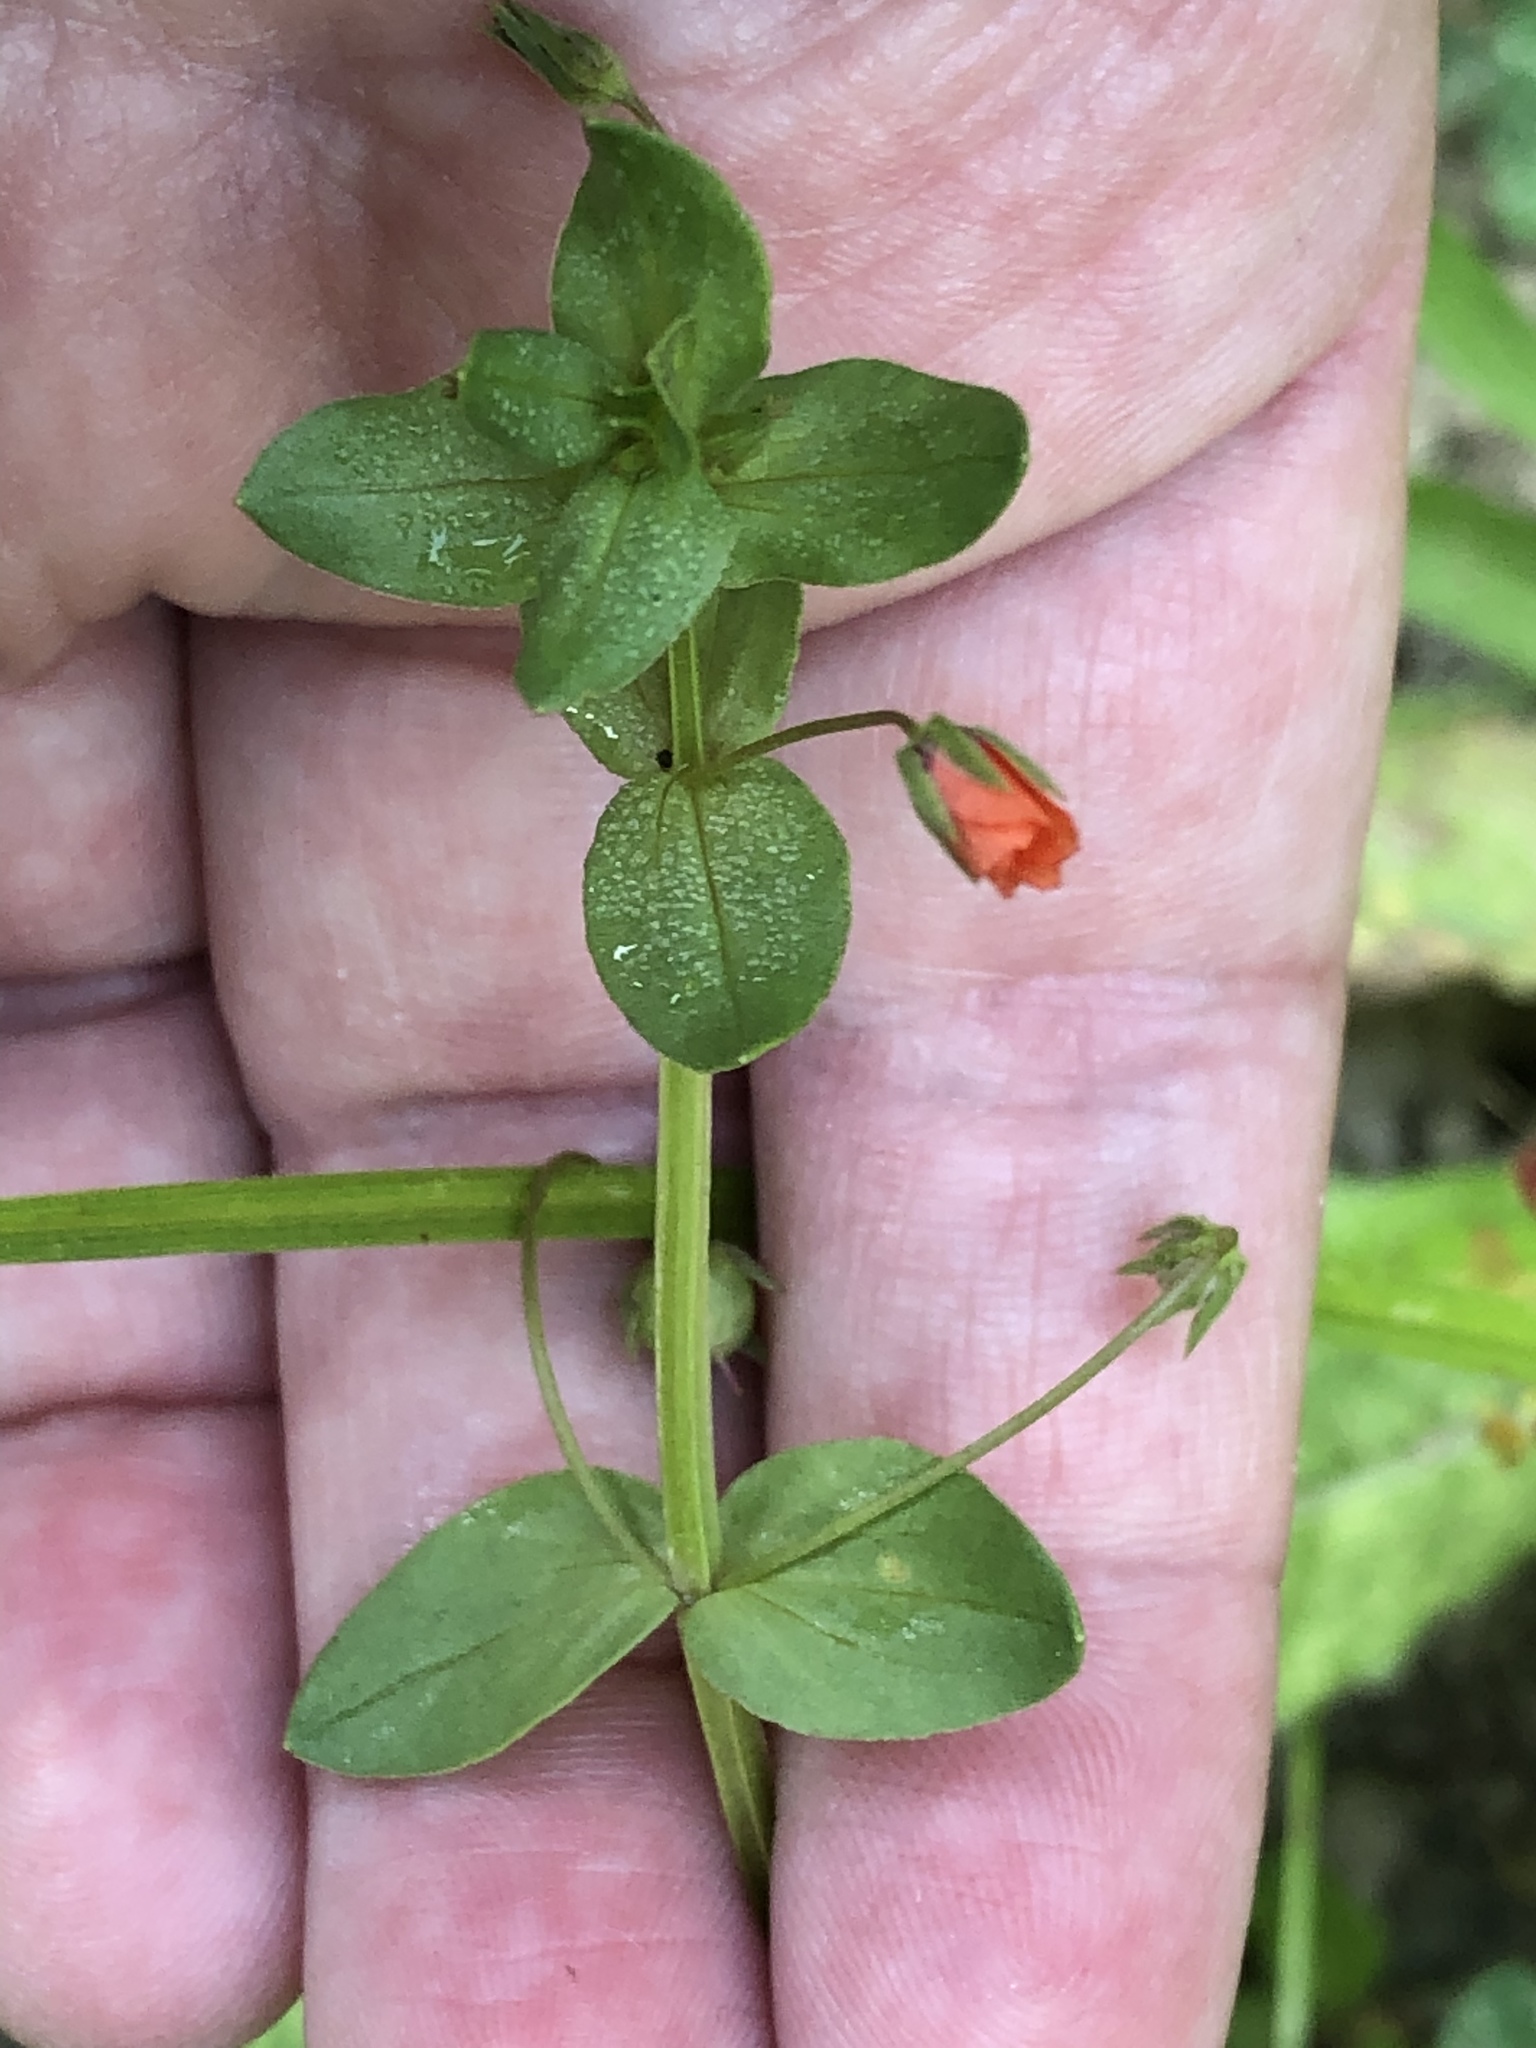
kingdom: Plantae
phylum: Tracheophyta
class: Magnoliopsida
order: Ericales
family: Primulaceae
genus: Lysimachia
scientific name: Lysimachia arvensis
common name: Scarlet pimpernel
